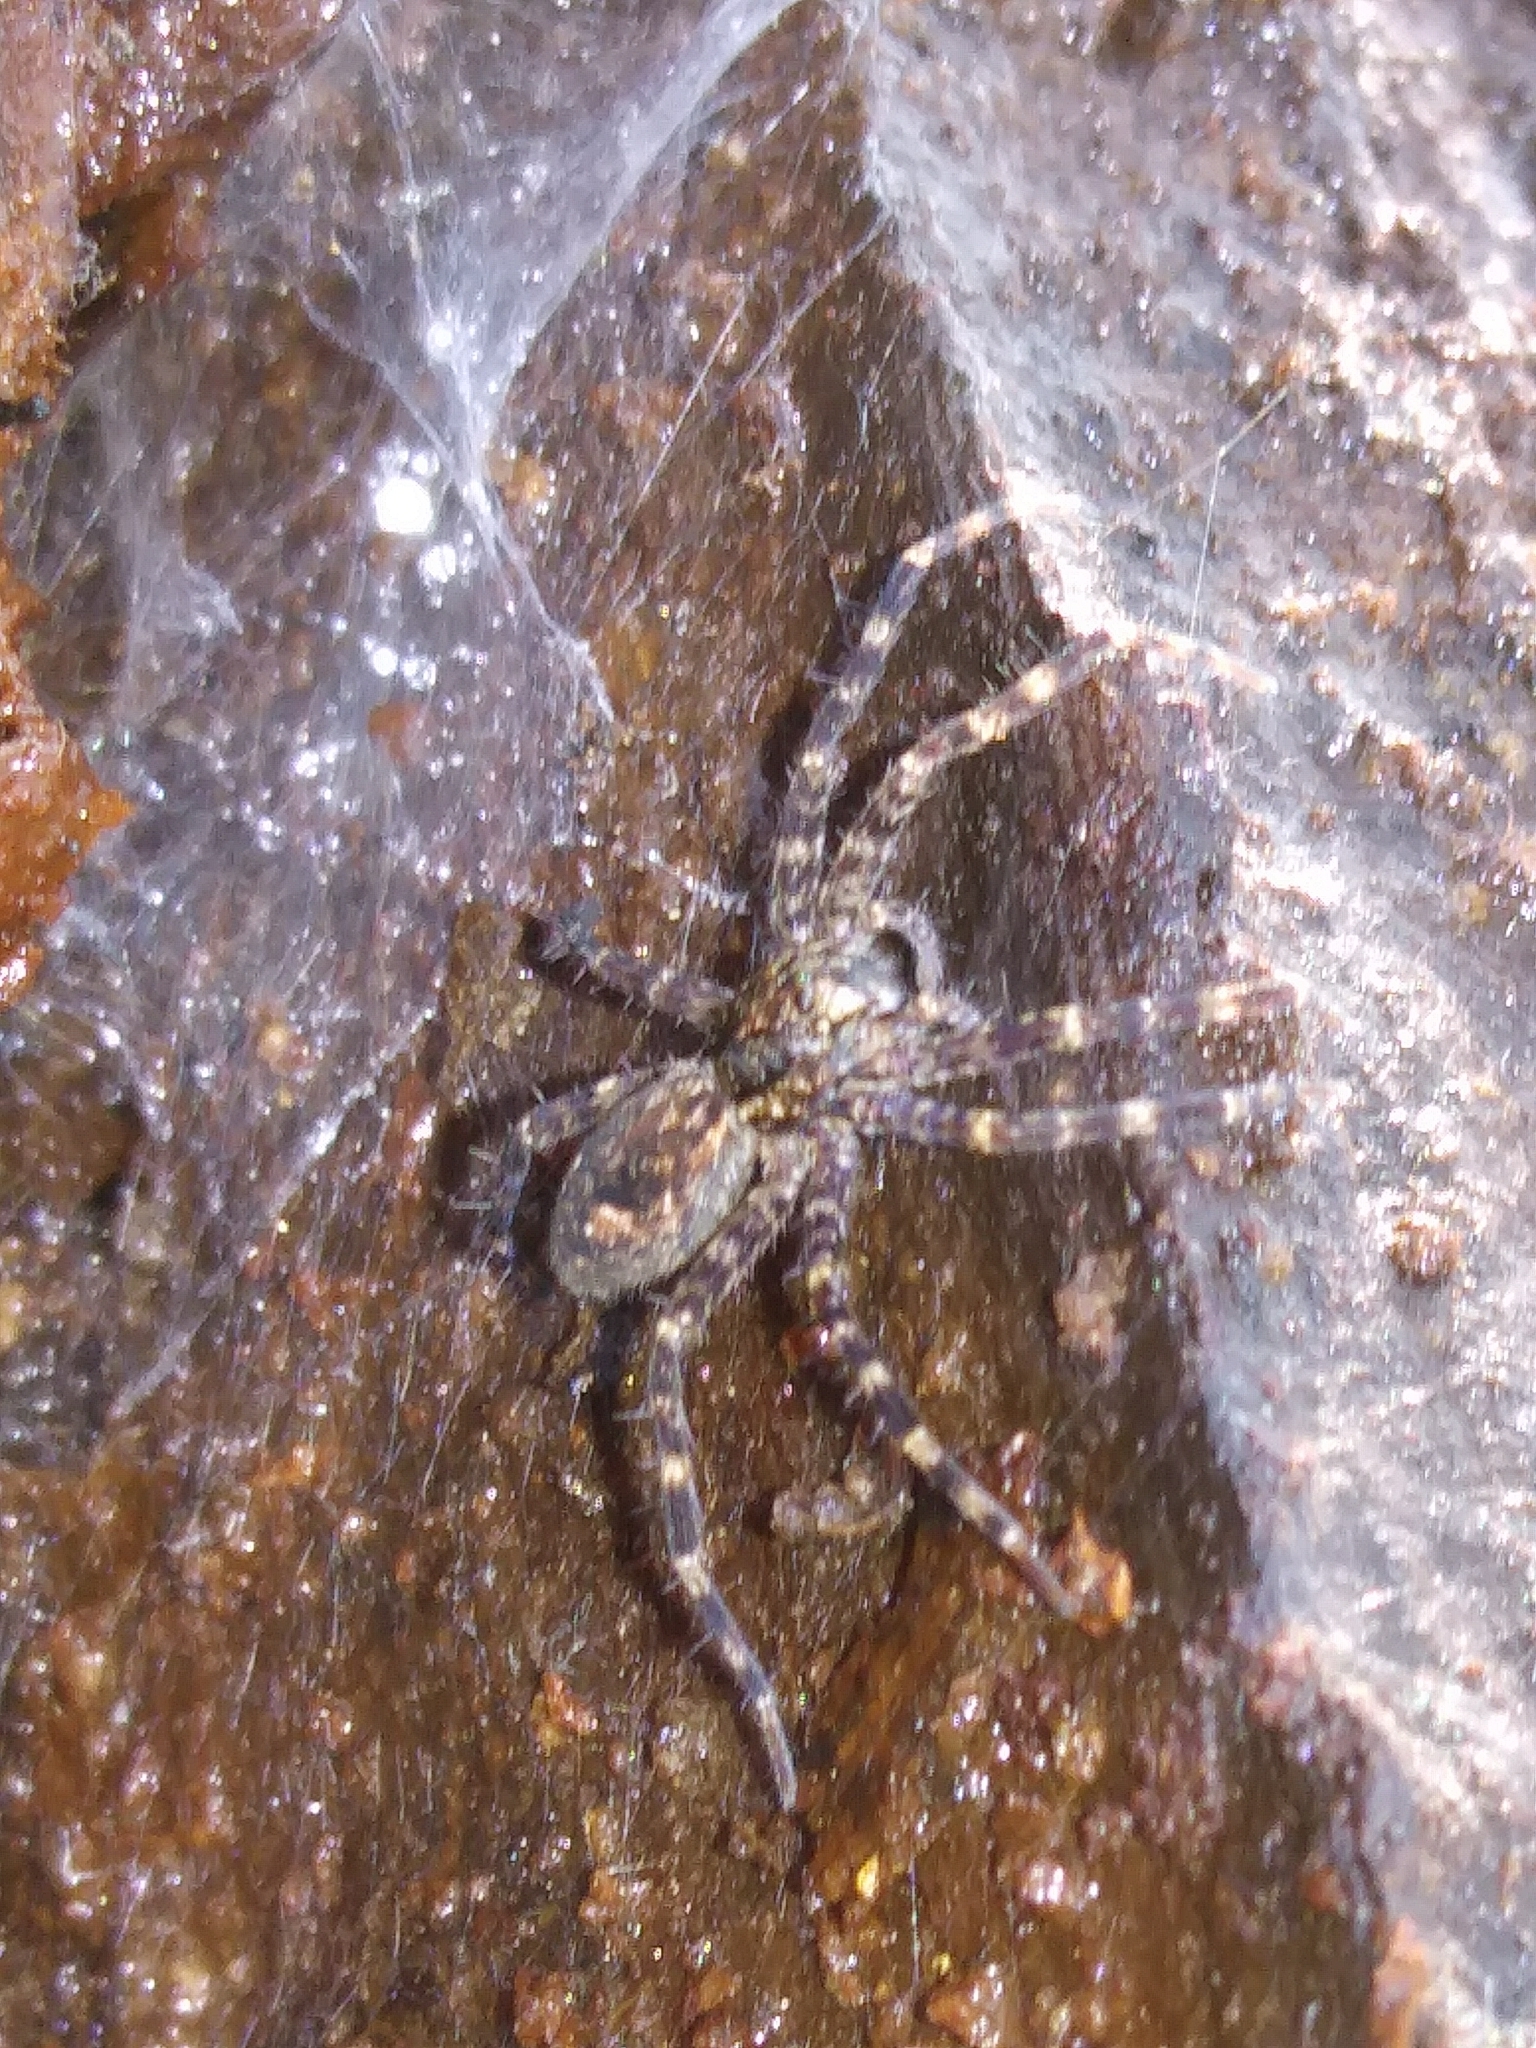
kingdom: Animalia
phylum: Arthropoda
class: Arachnida
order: Araneae
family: Pisauridae
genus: Dolomedes
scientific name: Dolomedes tenebrosus
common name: Dark fishing spider
